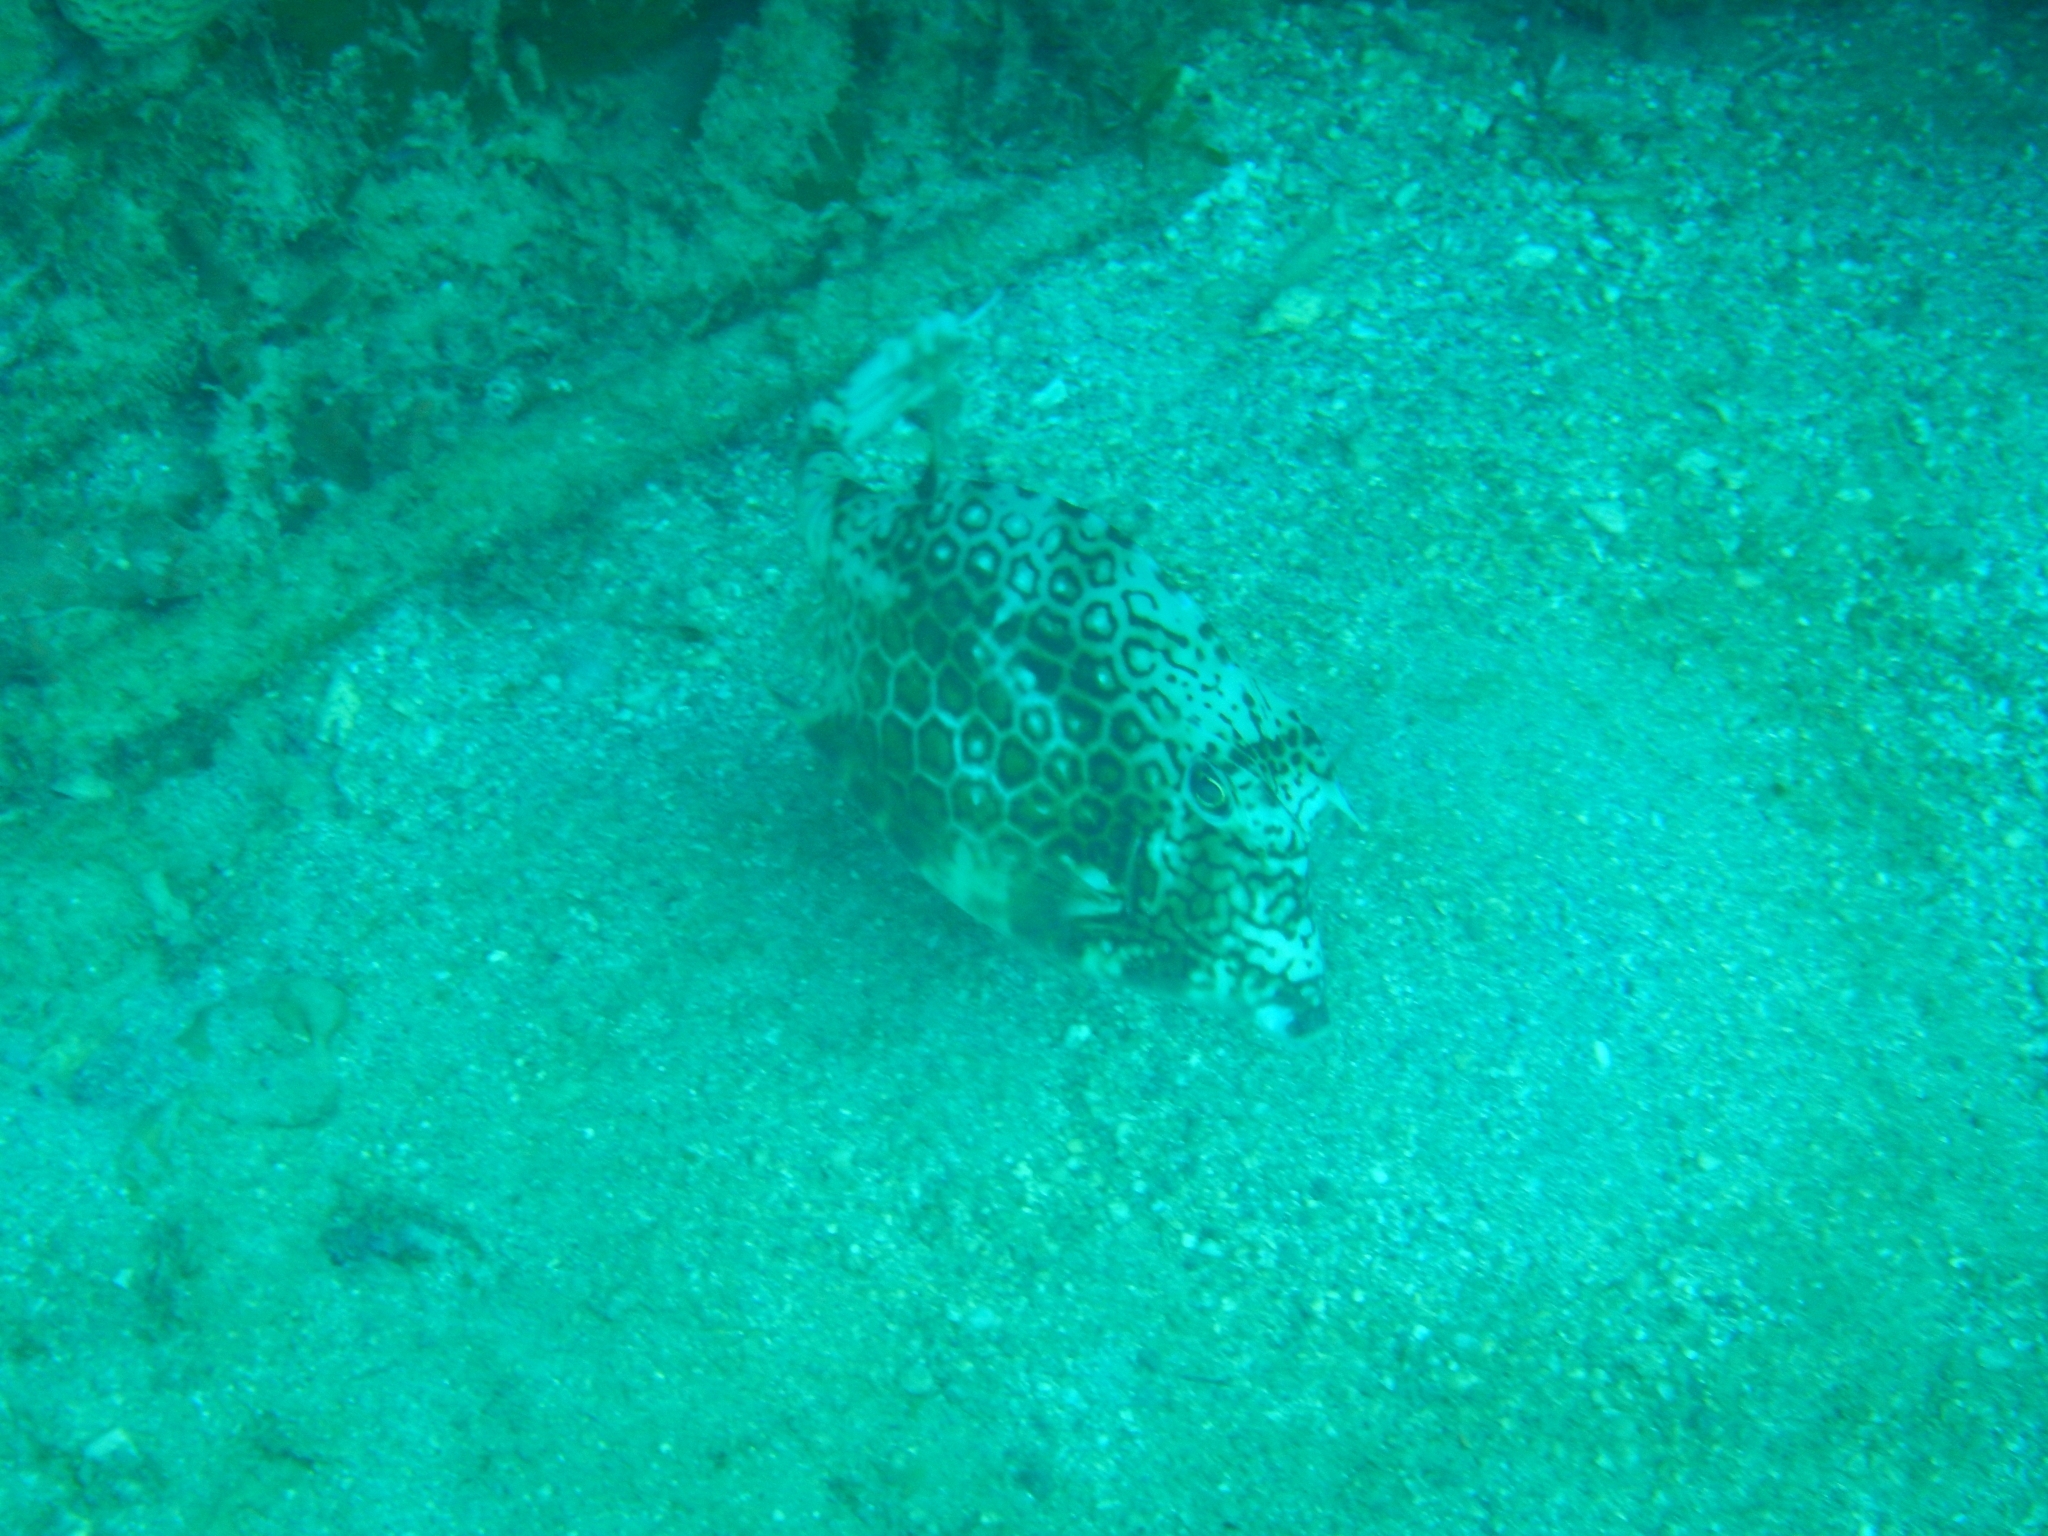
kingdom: Animalia
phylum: Chordata
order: Tetraodontiformes
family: Ostraciidae
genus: Acanthostracion
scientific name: Acanthostracion polygonius
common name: Honeycomb cowfish
